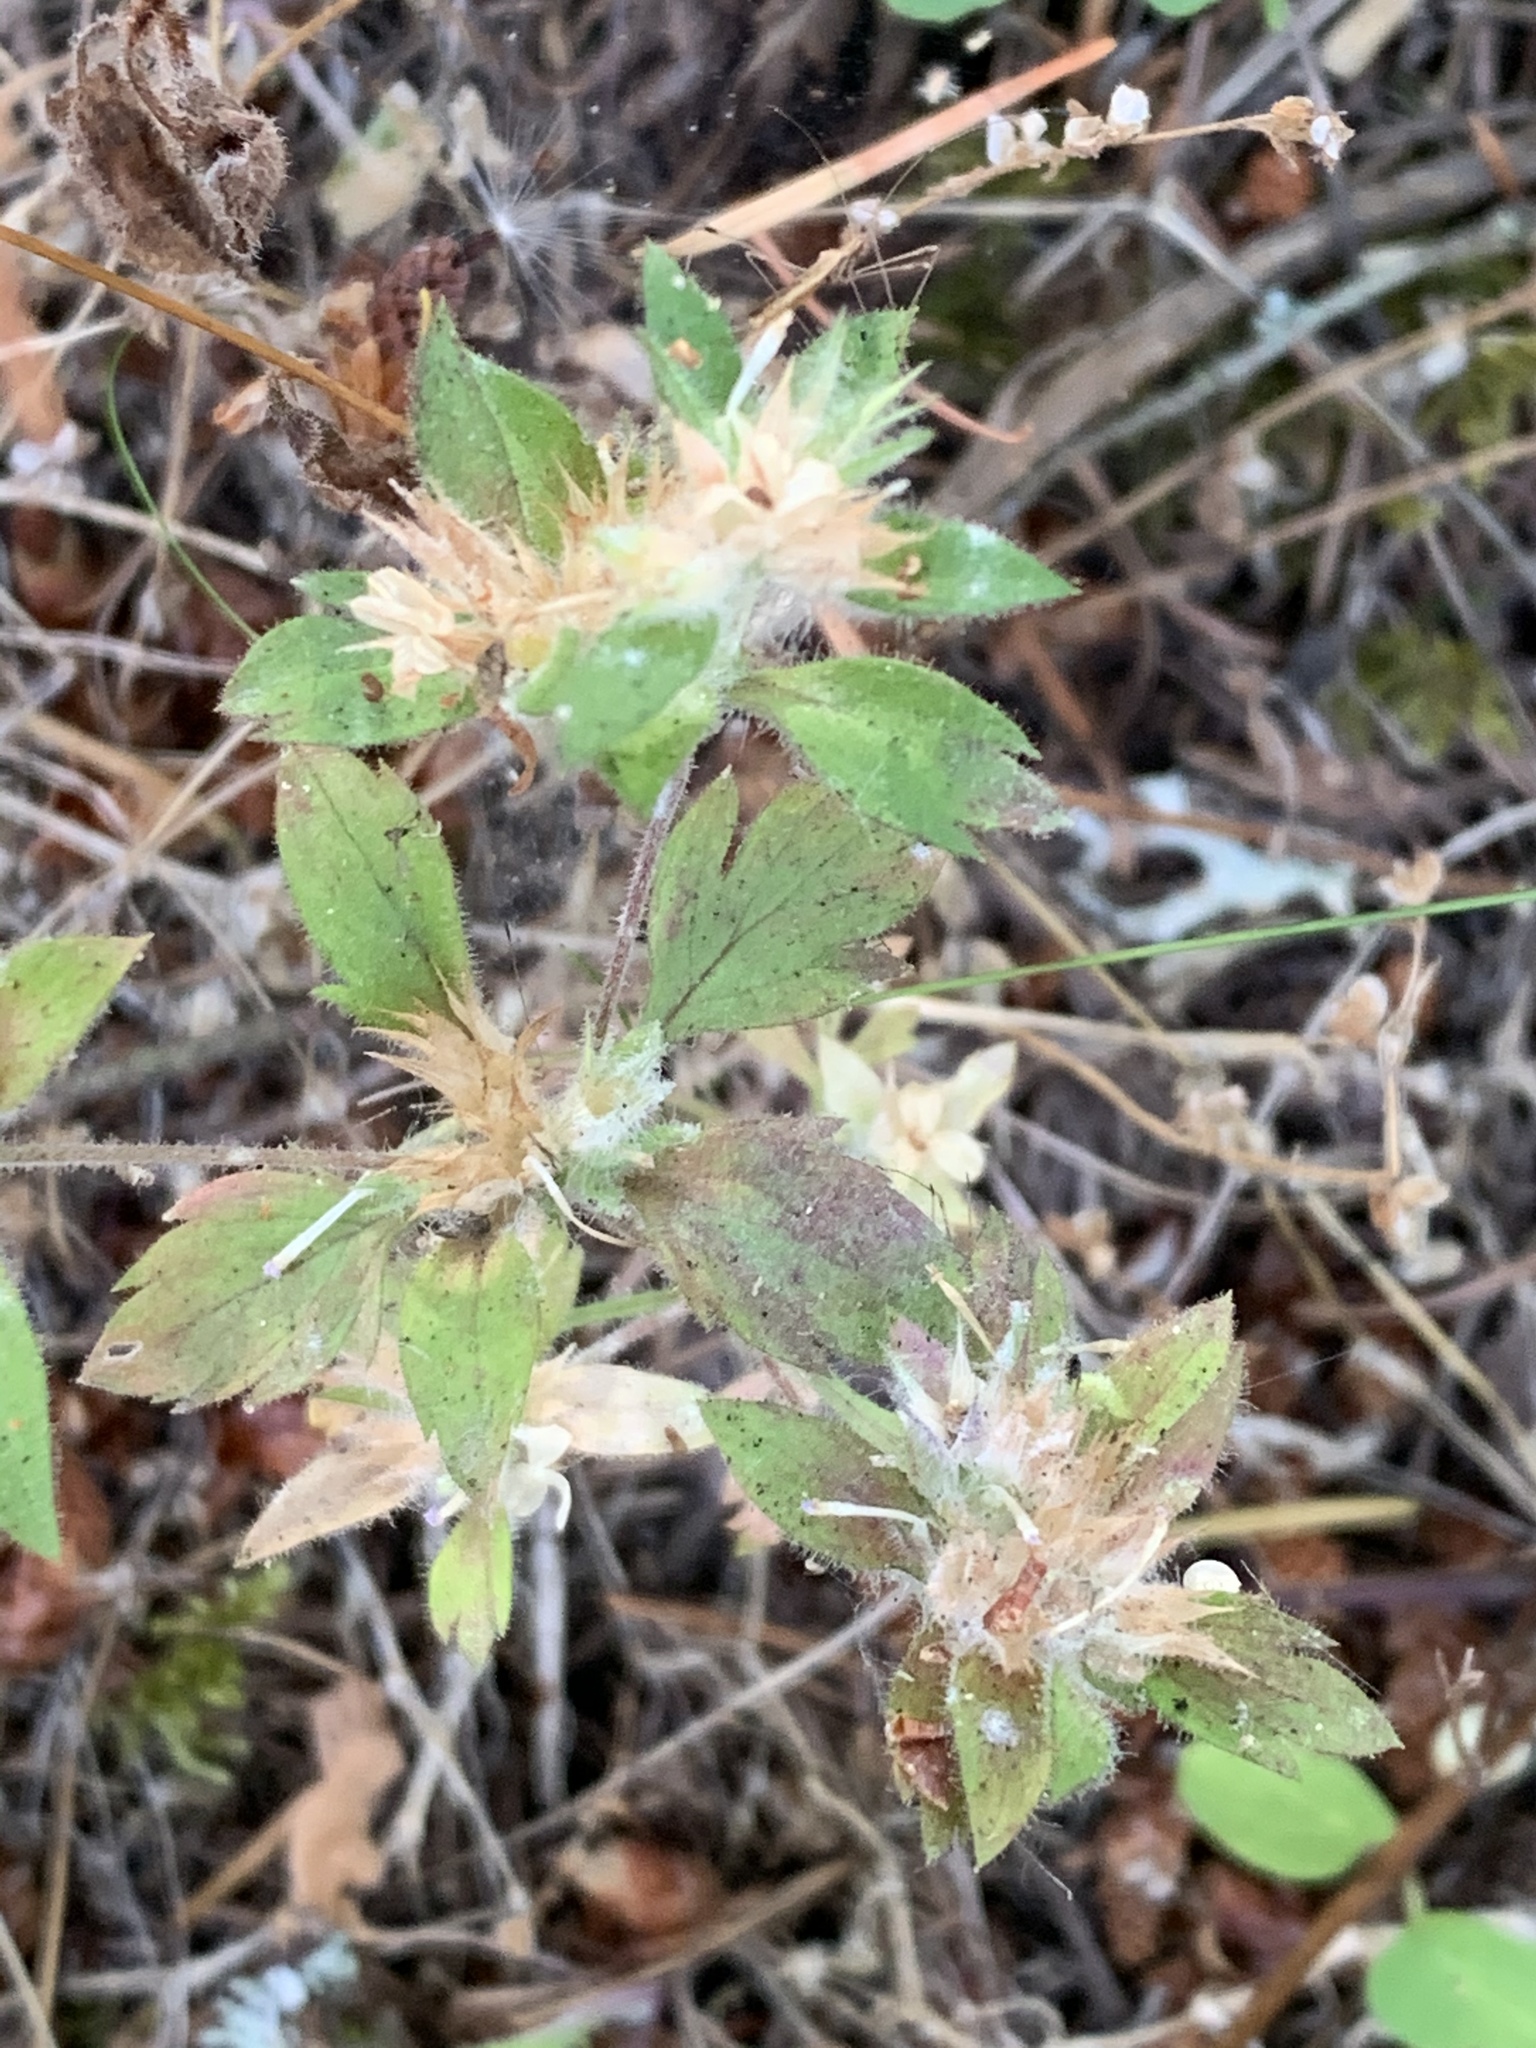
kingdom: Plantae
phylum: Tracheophyta
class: Magnoliopsida
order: Ericales
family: Polemoniaceae
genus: Collomia
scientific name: Collomia heterophylla
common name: Variable-leaved collomia
